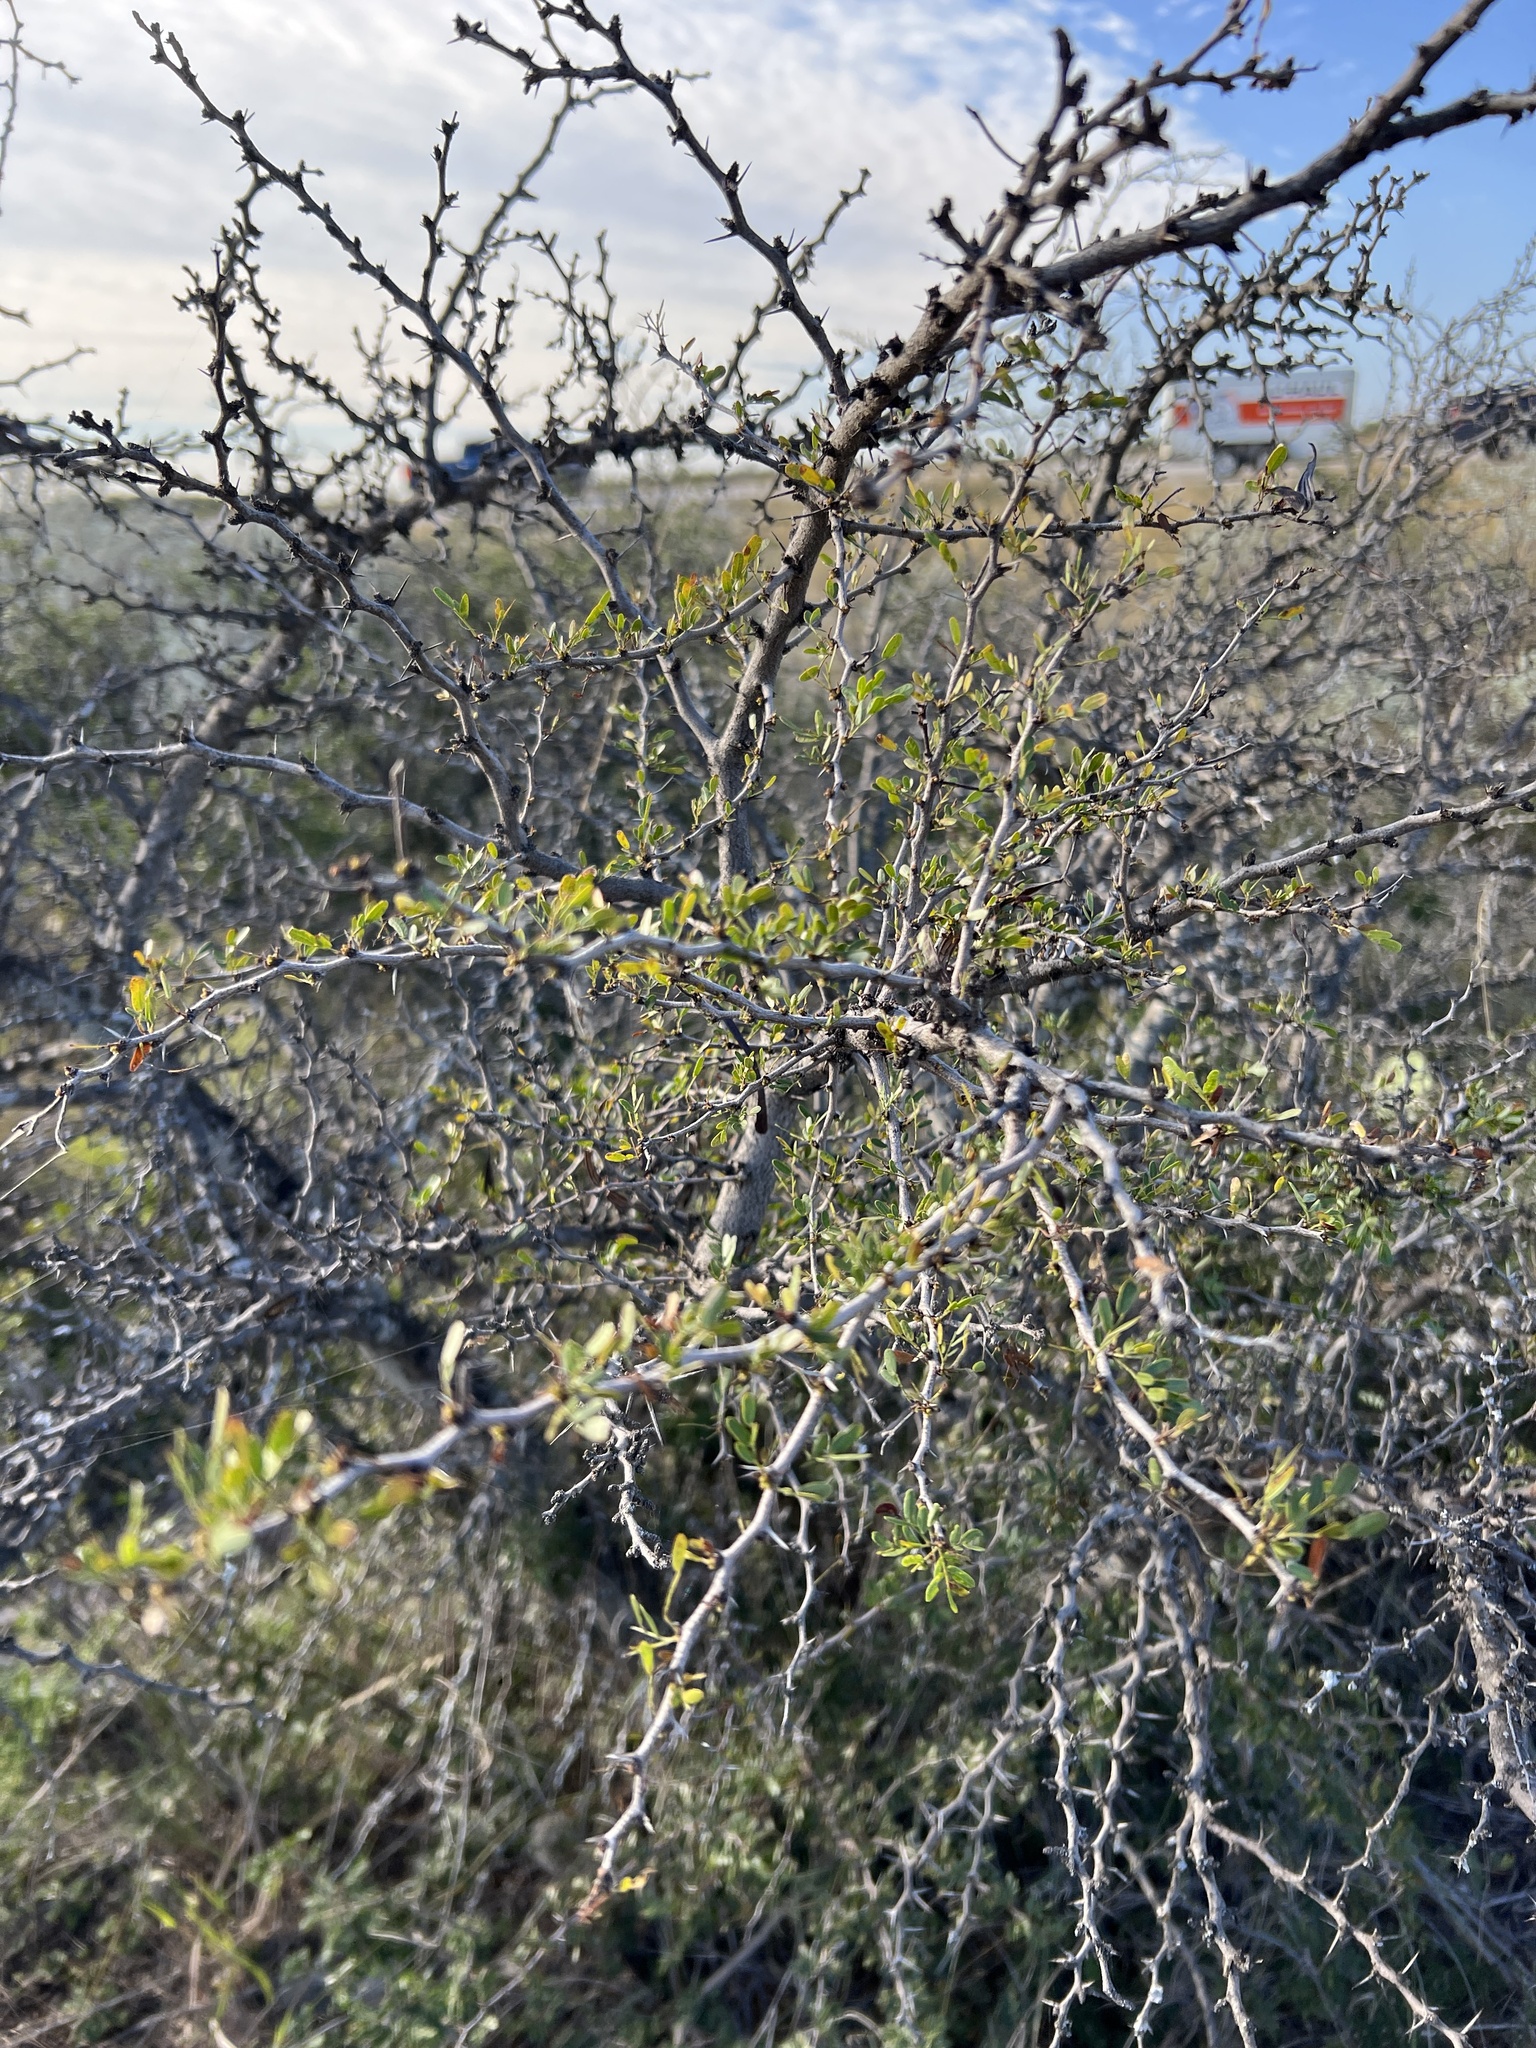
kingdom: Plantae
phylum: Tracheophyta
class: Magnoliopsida
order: Fabales
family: Fabaceae
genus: Vachellia
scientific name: Vachellia rigidula
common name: Blackbrush
